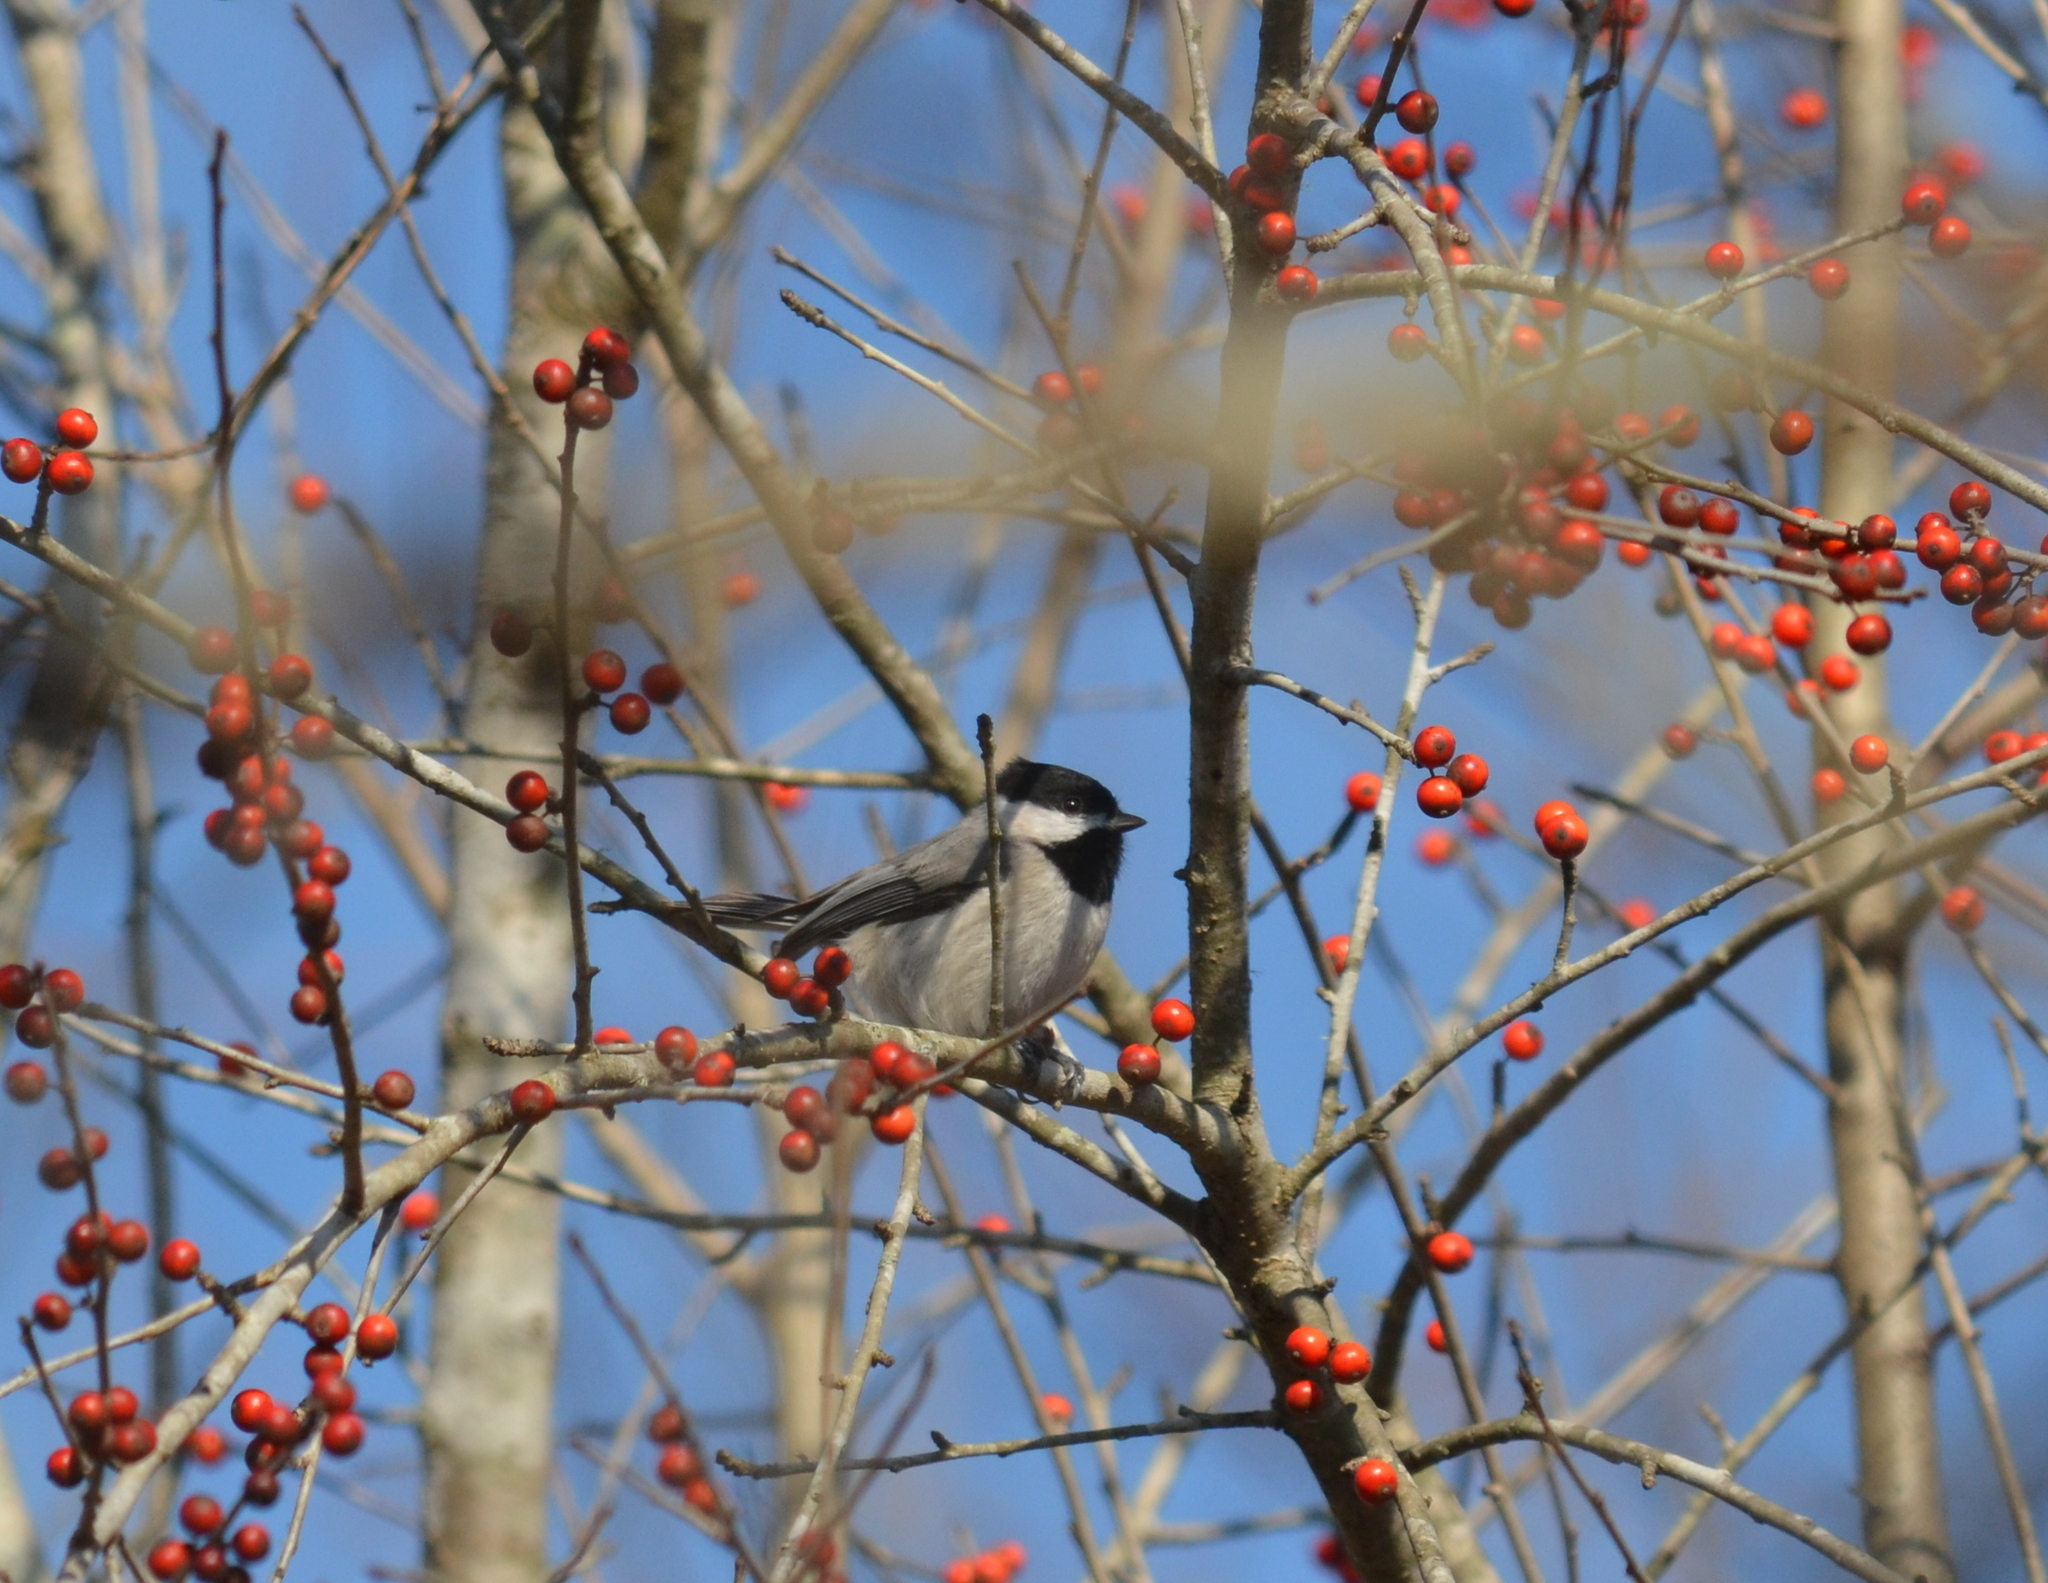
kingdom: Animalia
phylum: Chordata
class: Aves
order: Passeriformes
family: Paridae
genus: Poecile
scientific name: Poecile carolinensis
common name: Carolina chickadee
